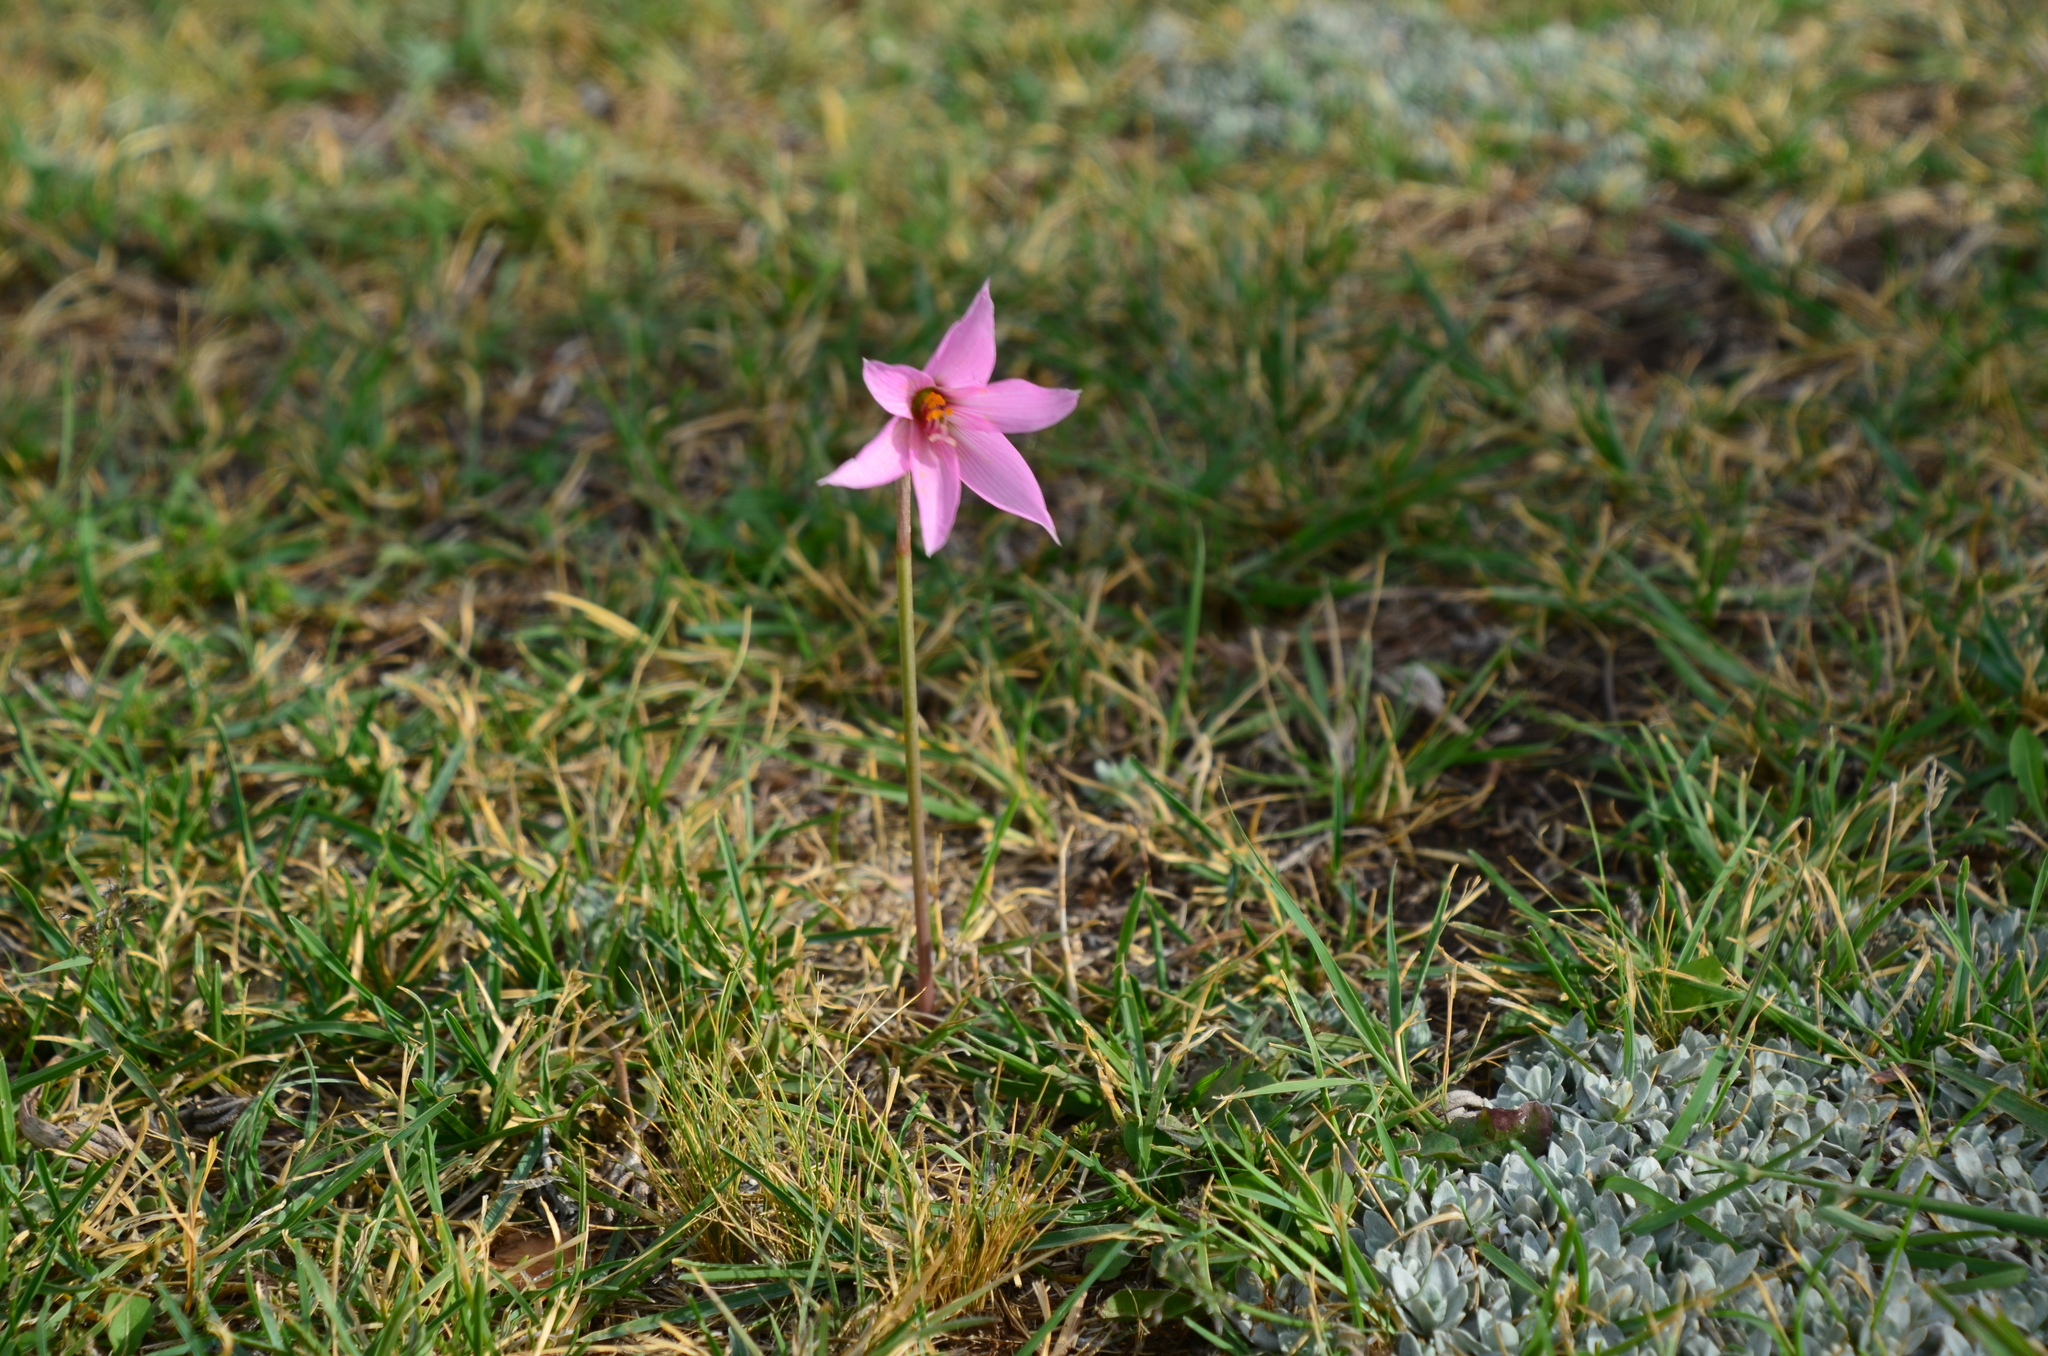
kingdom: Plantae
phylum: Tracheophyta
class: Liliopsida
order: Asparagales
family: Amaryllidaceae
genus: Zephyranthes
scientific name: Zephyranthes gracilifolia
